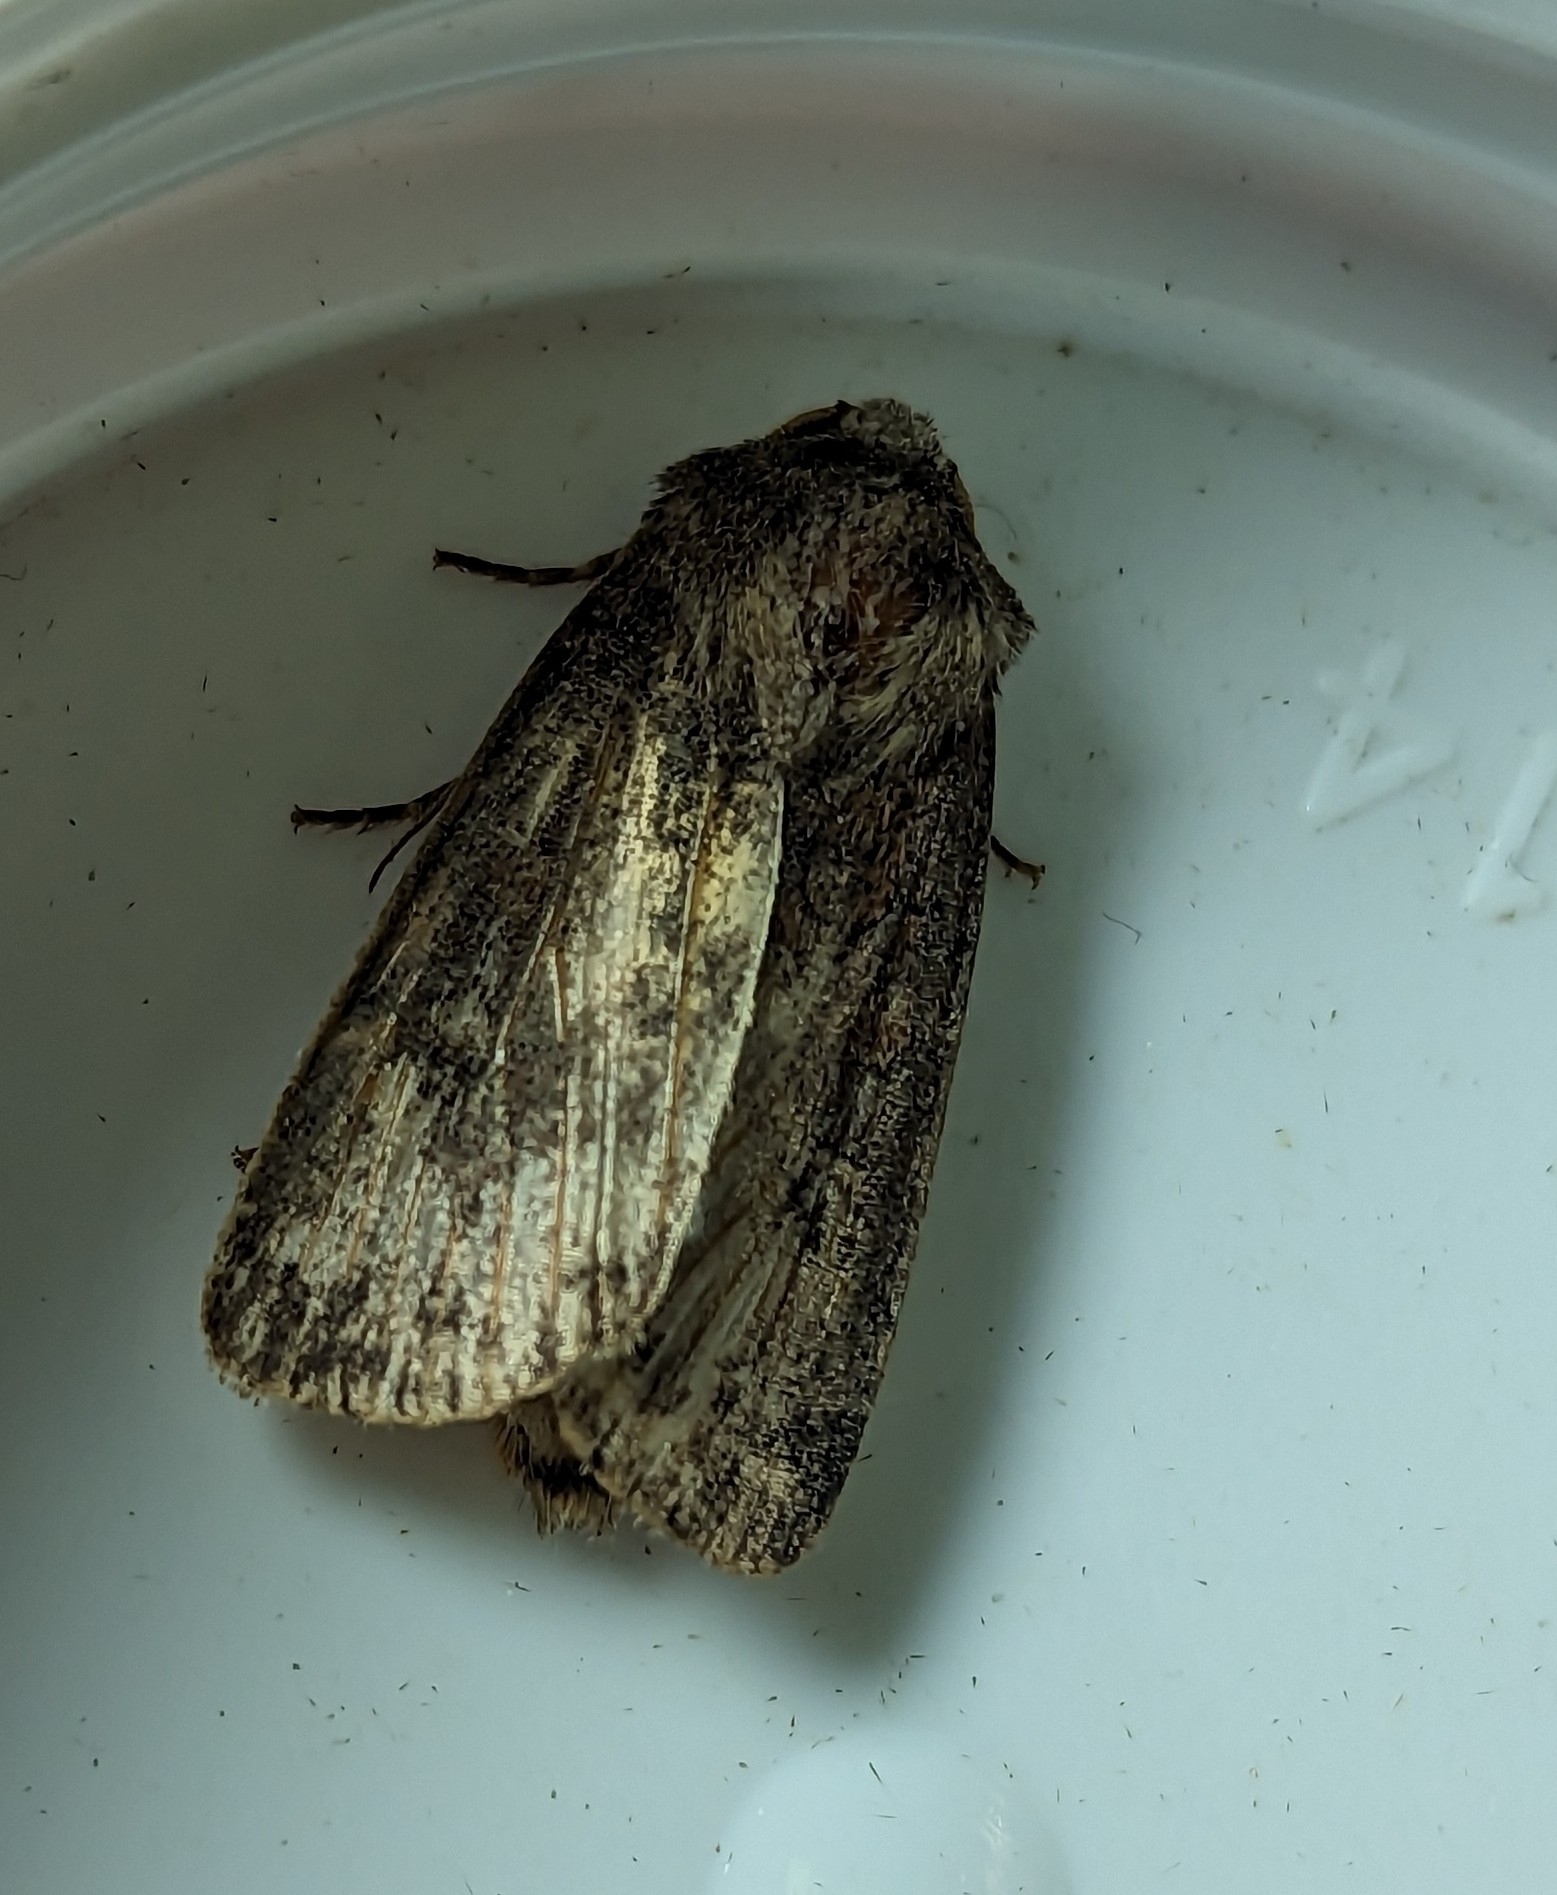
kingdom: Animalia
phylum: Arthropoda
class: Insecta
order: Lepidoptera
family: Noctuidae
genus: Xestia
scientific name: Xestia xanthographa
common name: Square-spot rustic
